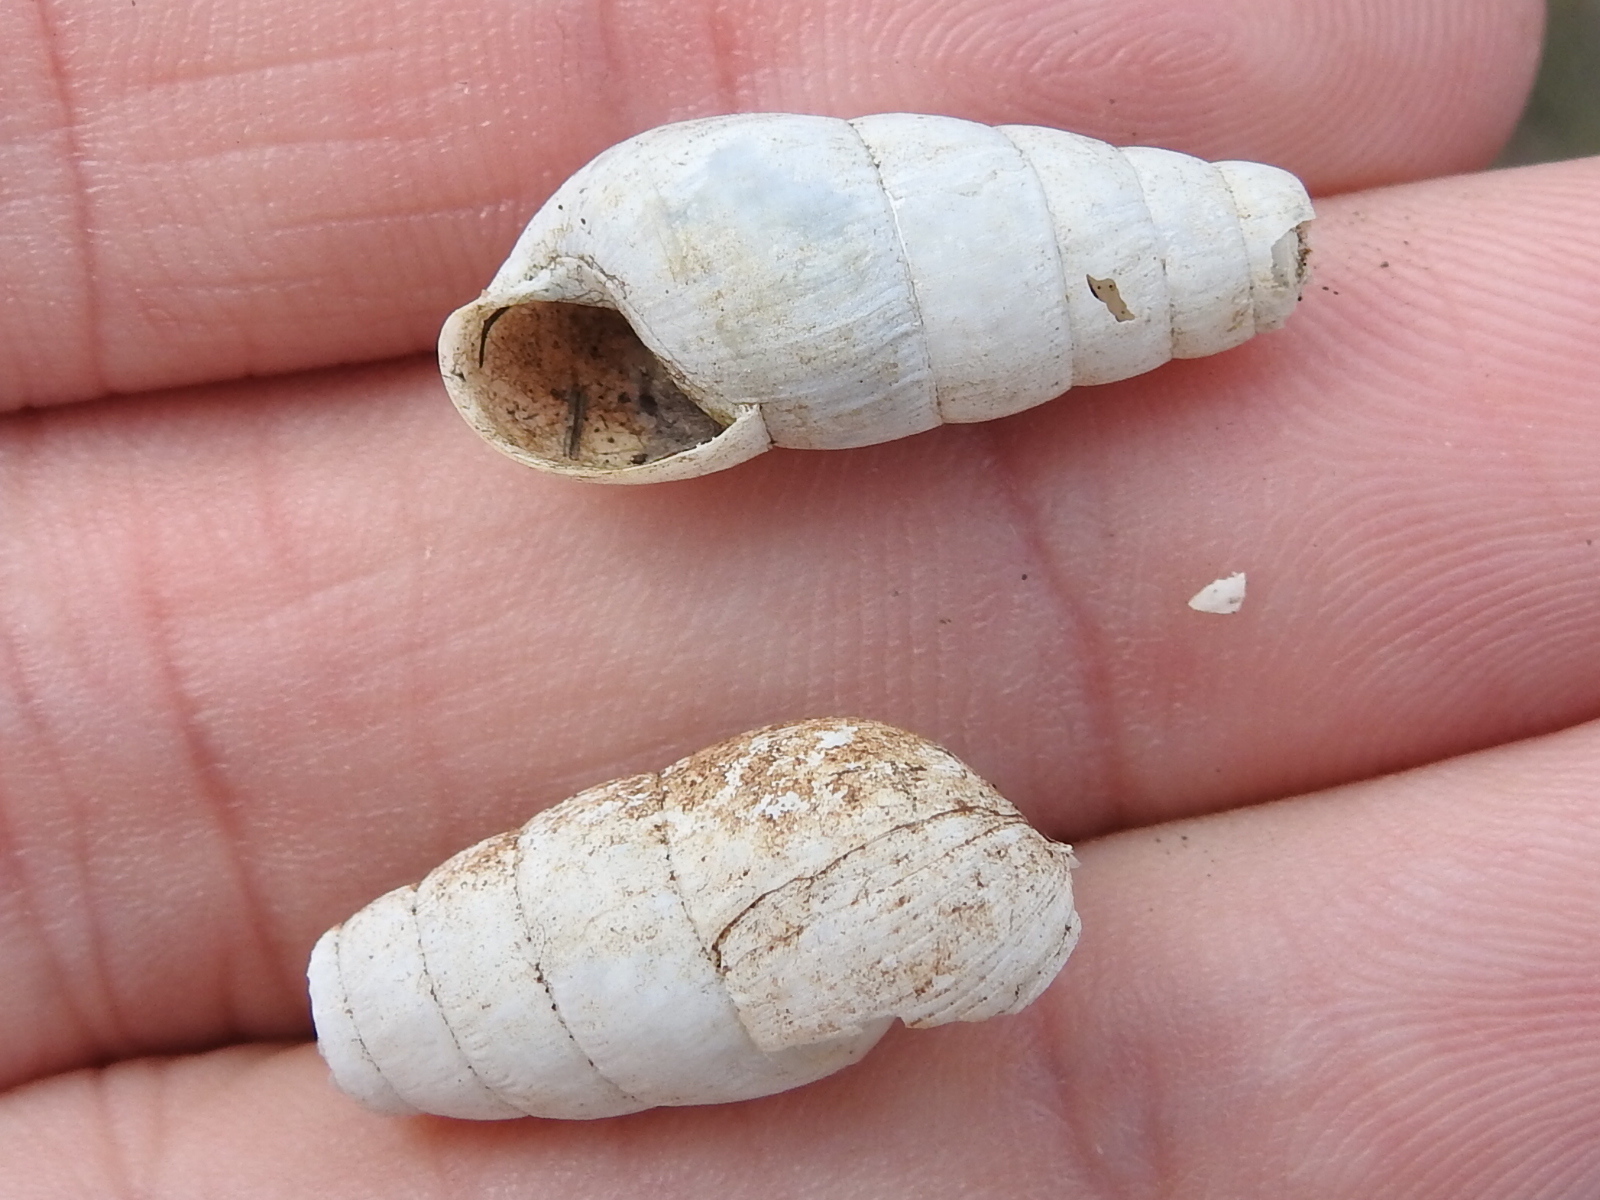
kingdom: Animalia
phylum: Mollusca
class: Gastropoda
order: Stylommatophora
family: Achatinidae
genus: Rumina
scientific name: Rumina decollata
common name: Decollate snail
